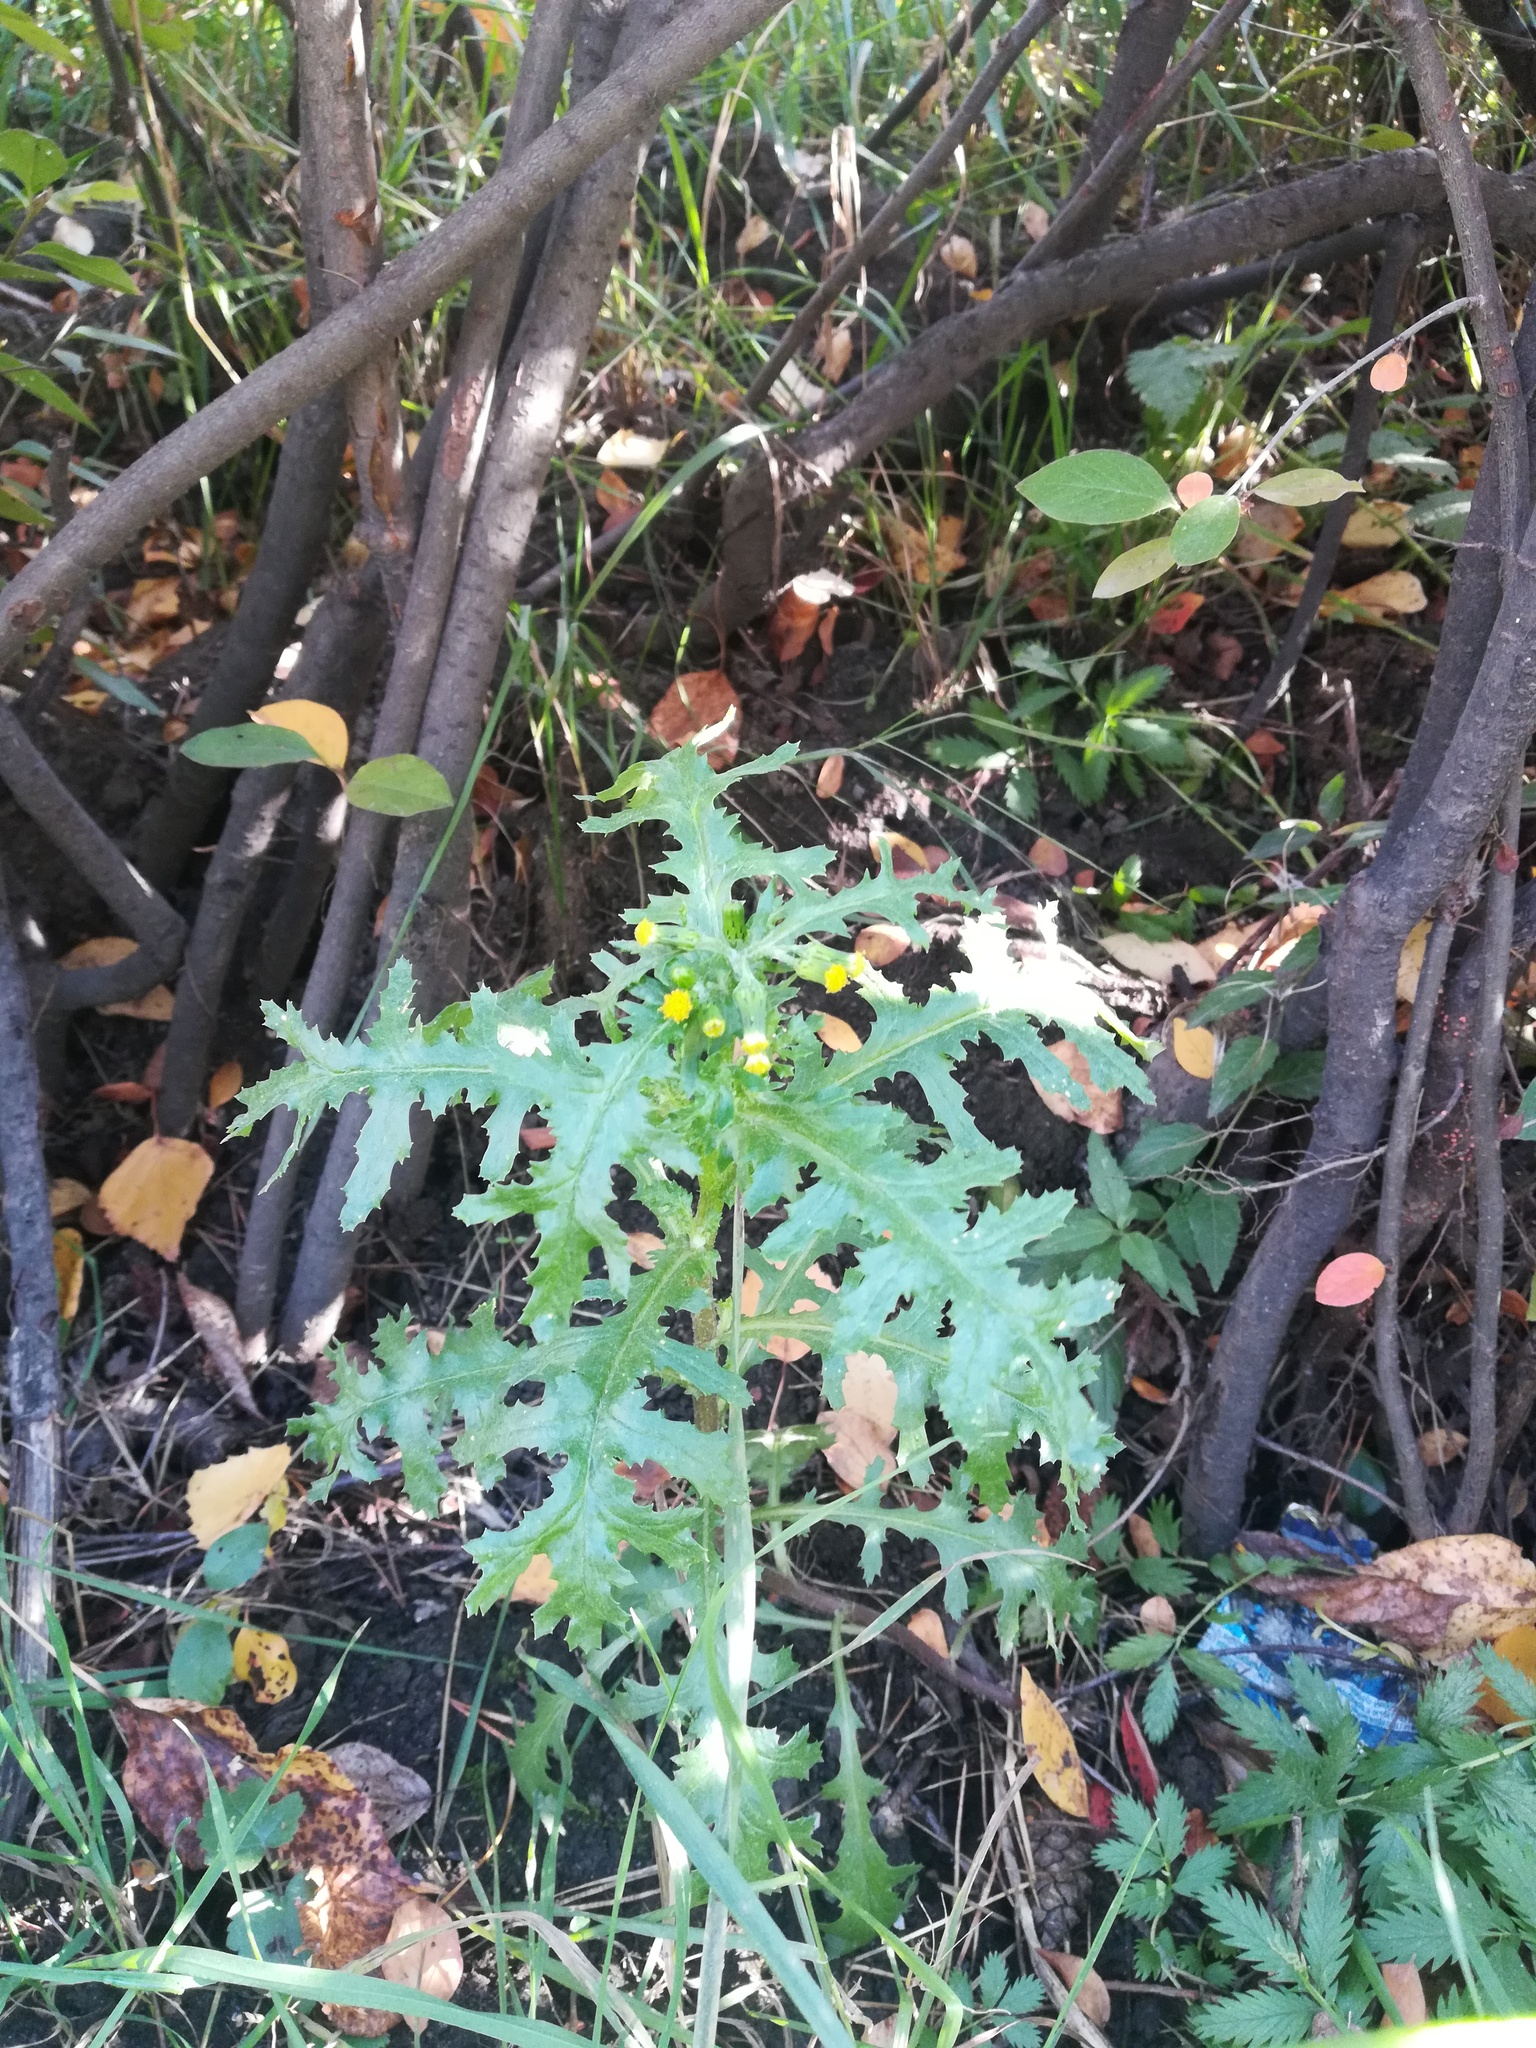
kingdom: Plantae
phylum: Tracheophyta
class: Magnoliopsida
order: Asterales
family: Asteraceae
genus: Senecio
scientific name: Senecio vulgaris
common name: Old-man-in-the-spring
